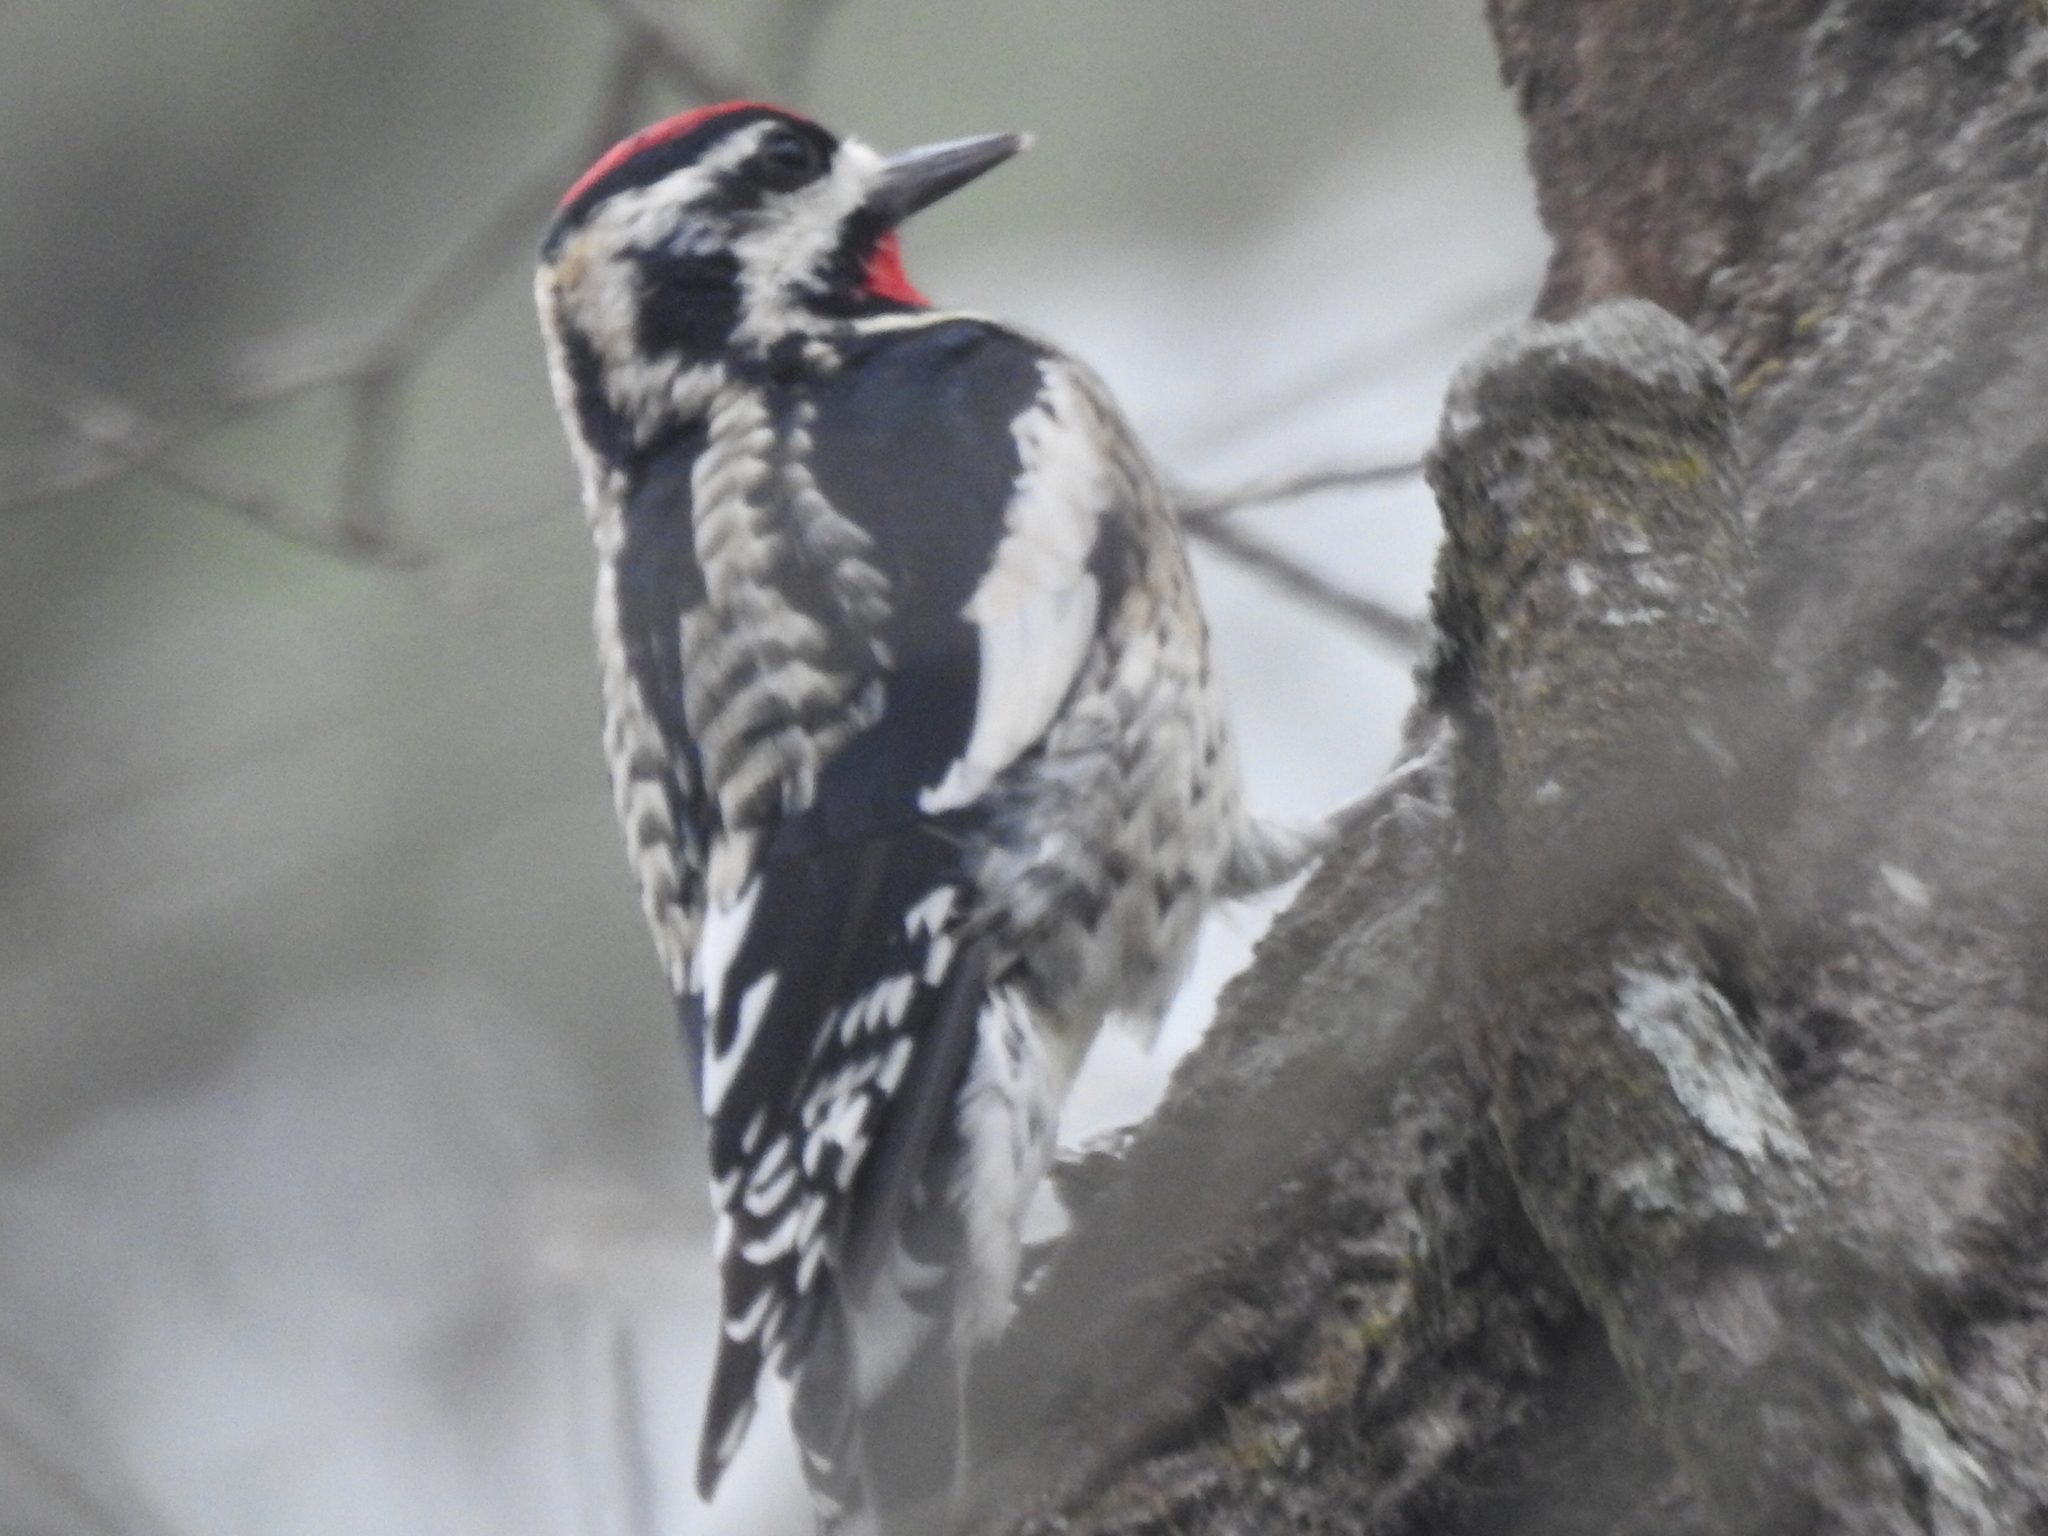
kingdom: Animalia
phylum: Chordata
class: Aves
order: Piciformes
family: Picidae
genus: Sphyrapicus
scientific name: Sphyrapicus varius
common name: Yellow-bellied sapsucker
